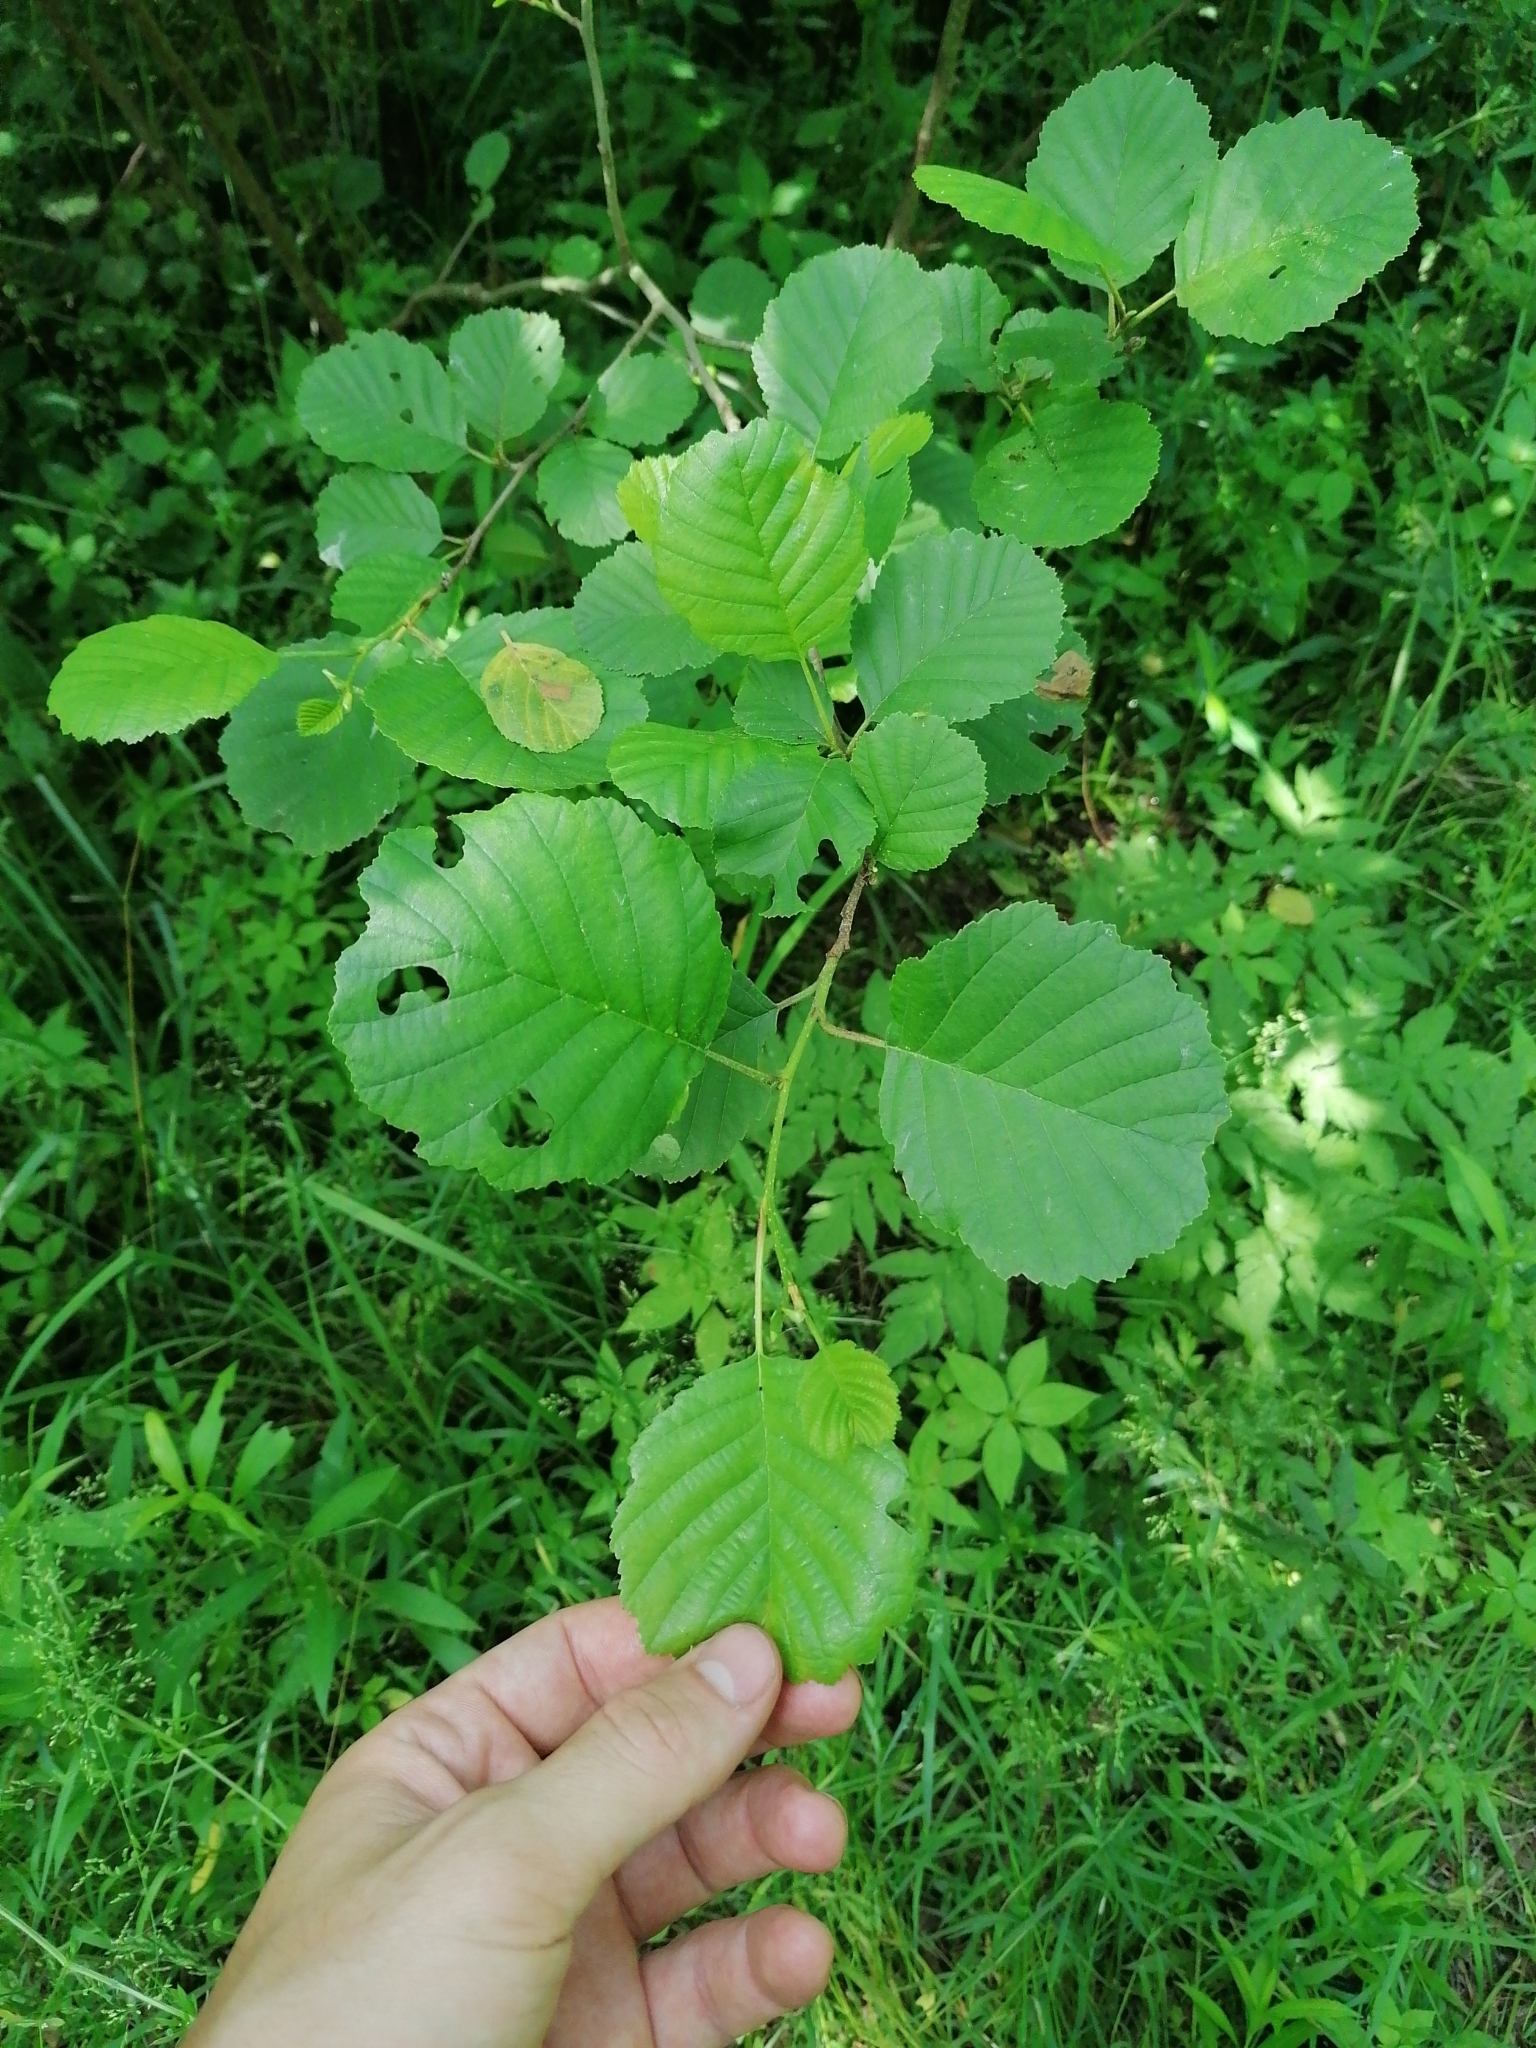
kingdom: Plantae
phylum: Tracheophyta
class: Magnoliopsida
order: Fagales
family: Betulaceae
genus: Alnus
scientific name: Alnus glutinosa
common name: Black alder
